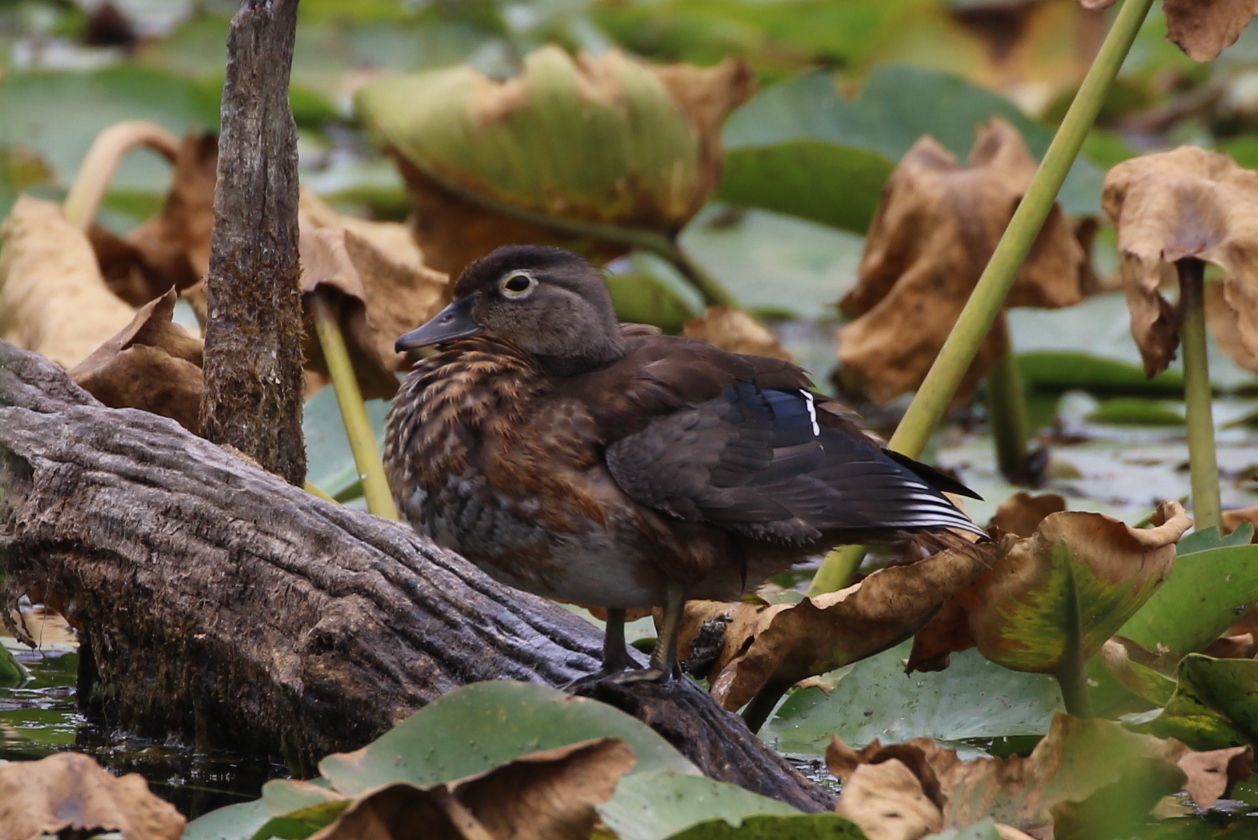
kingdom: Animalia
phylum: Chordata
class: Aves
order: Anseriformes
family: Anatidae
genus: Aix
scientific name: Aix sponsa
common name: Wood duck
